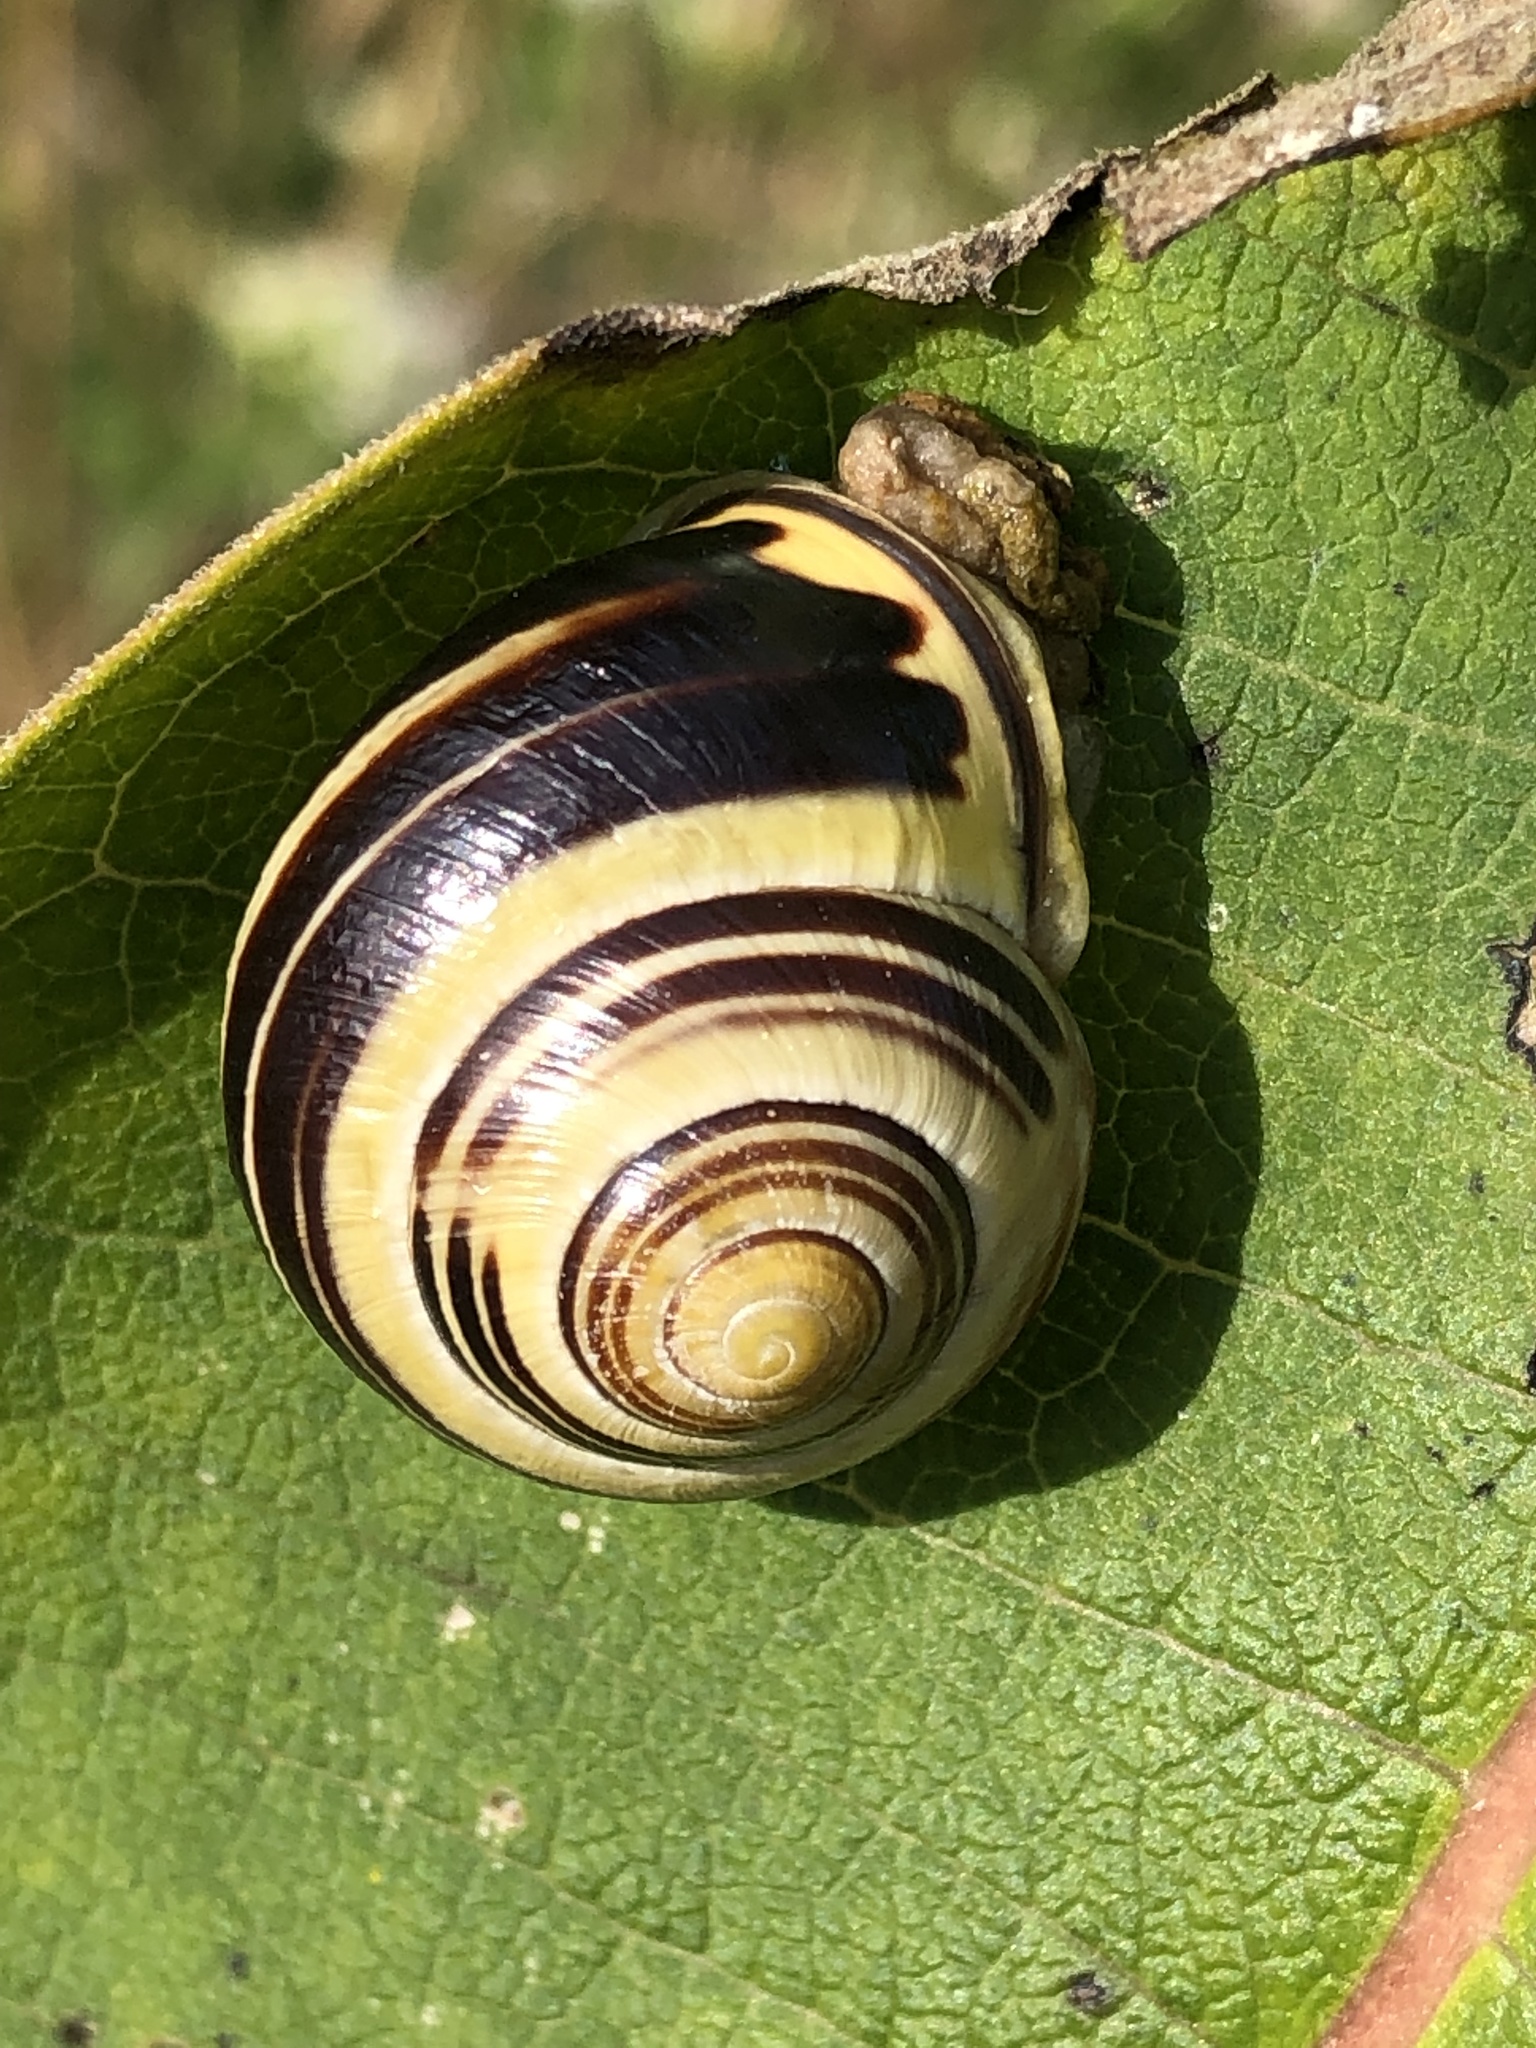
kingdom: Animalia
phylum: Mollusca
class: Gastropoda
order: Stylommatophora
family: Helicidae
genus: Cepaea
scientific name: Cepaea nemoralis
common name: Grovesnail
